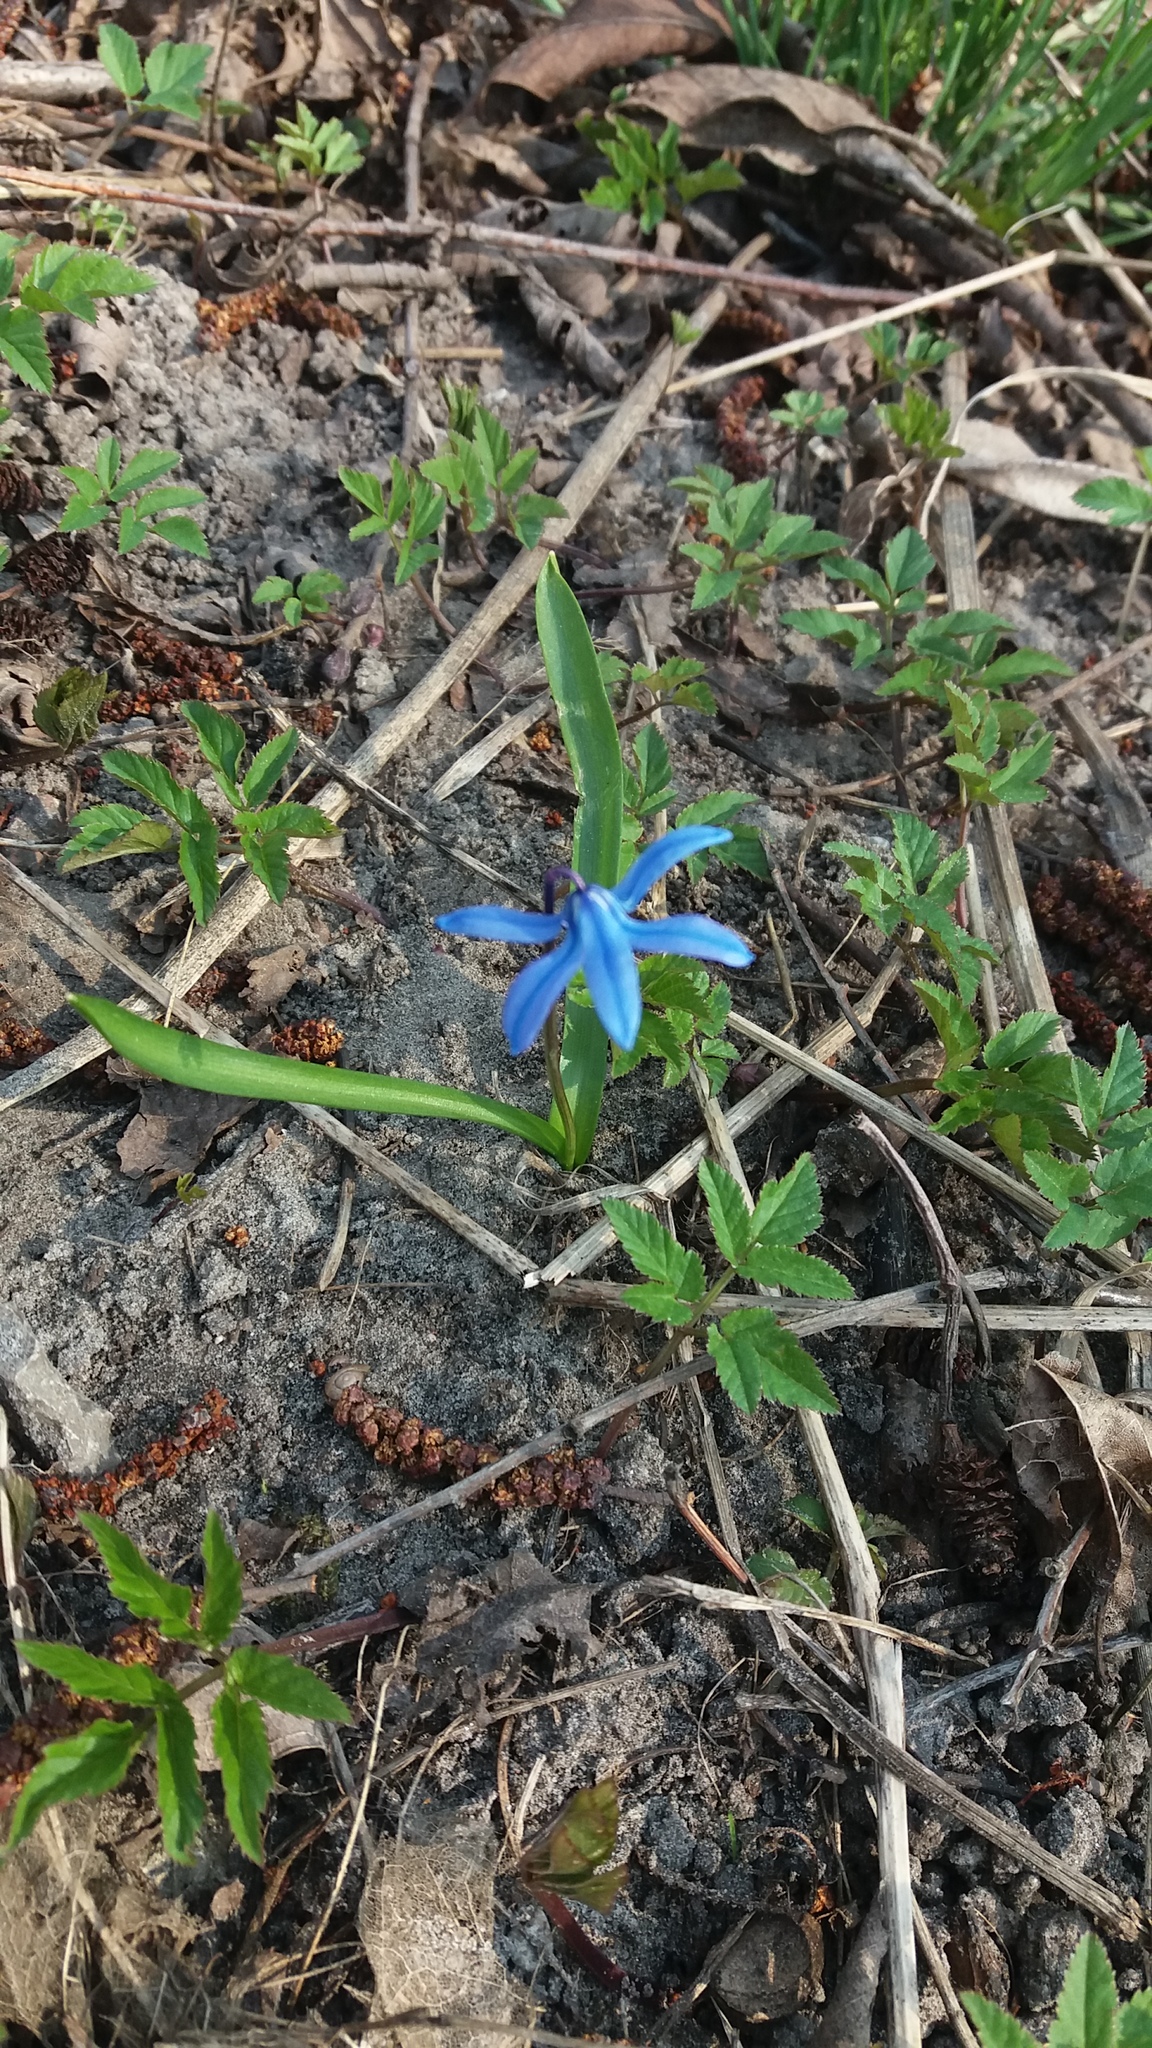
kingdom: Plantae
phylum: Tracheophyta
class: Liliopsida
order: Asparagales
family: Asparagaceae
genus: Scilla
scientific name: Scilla siberica
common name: Siberian squill
